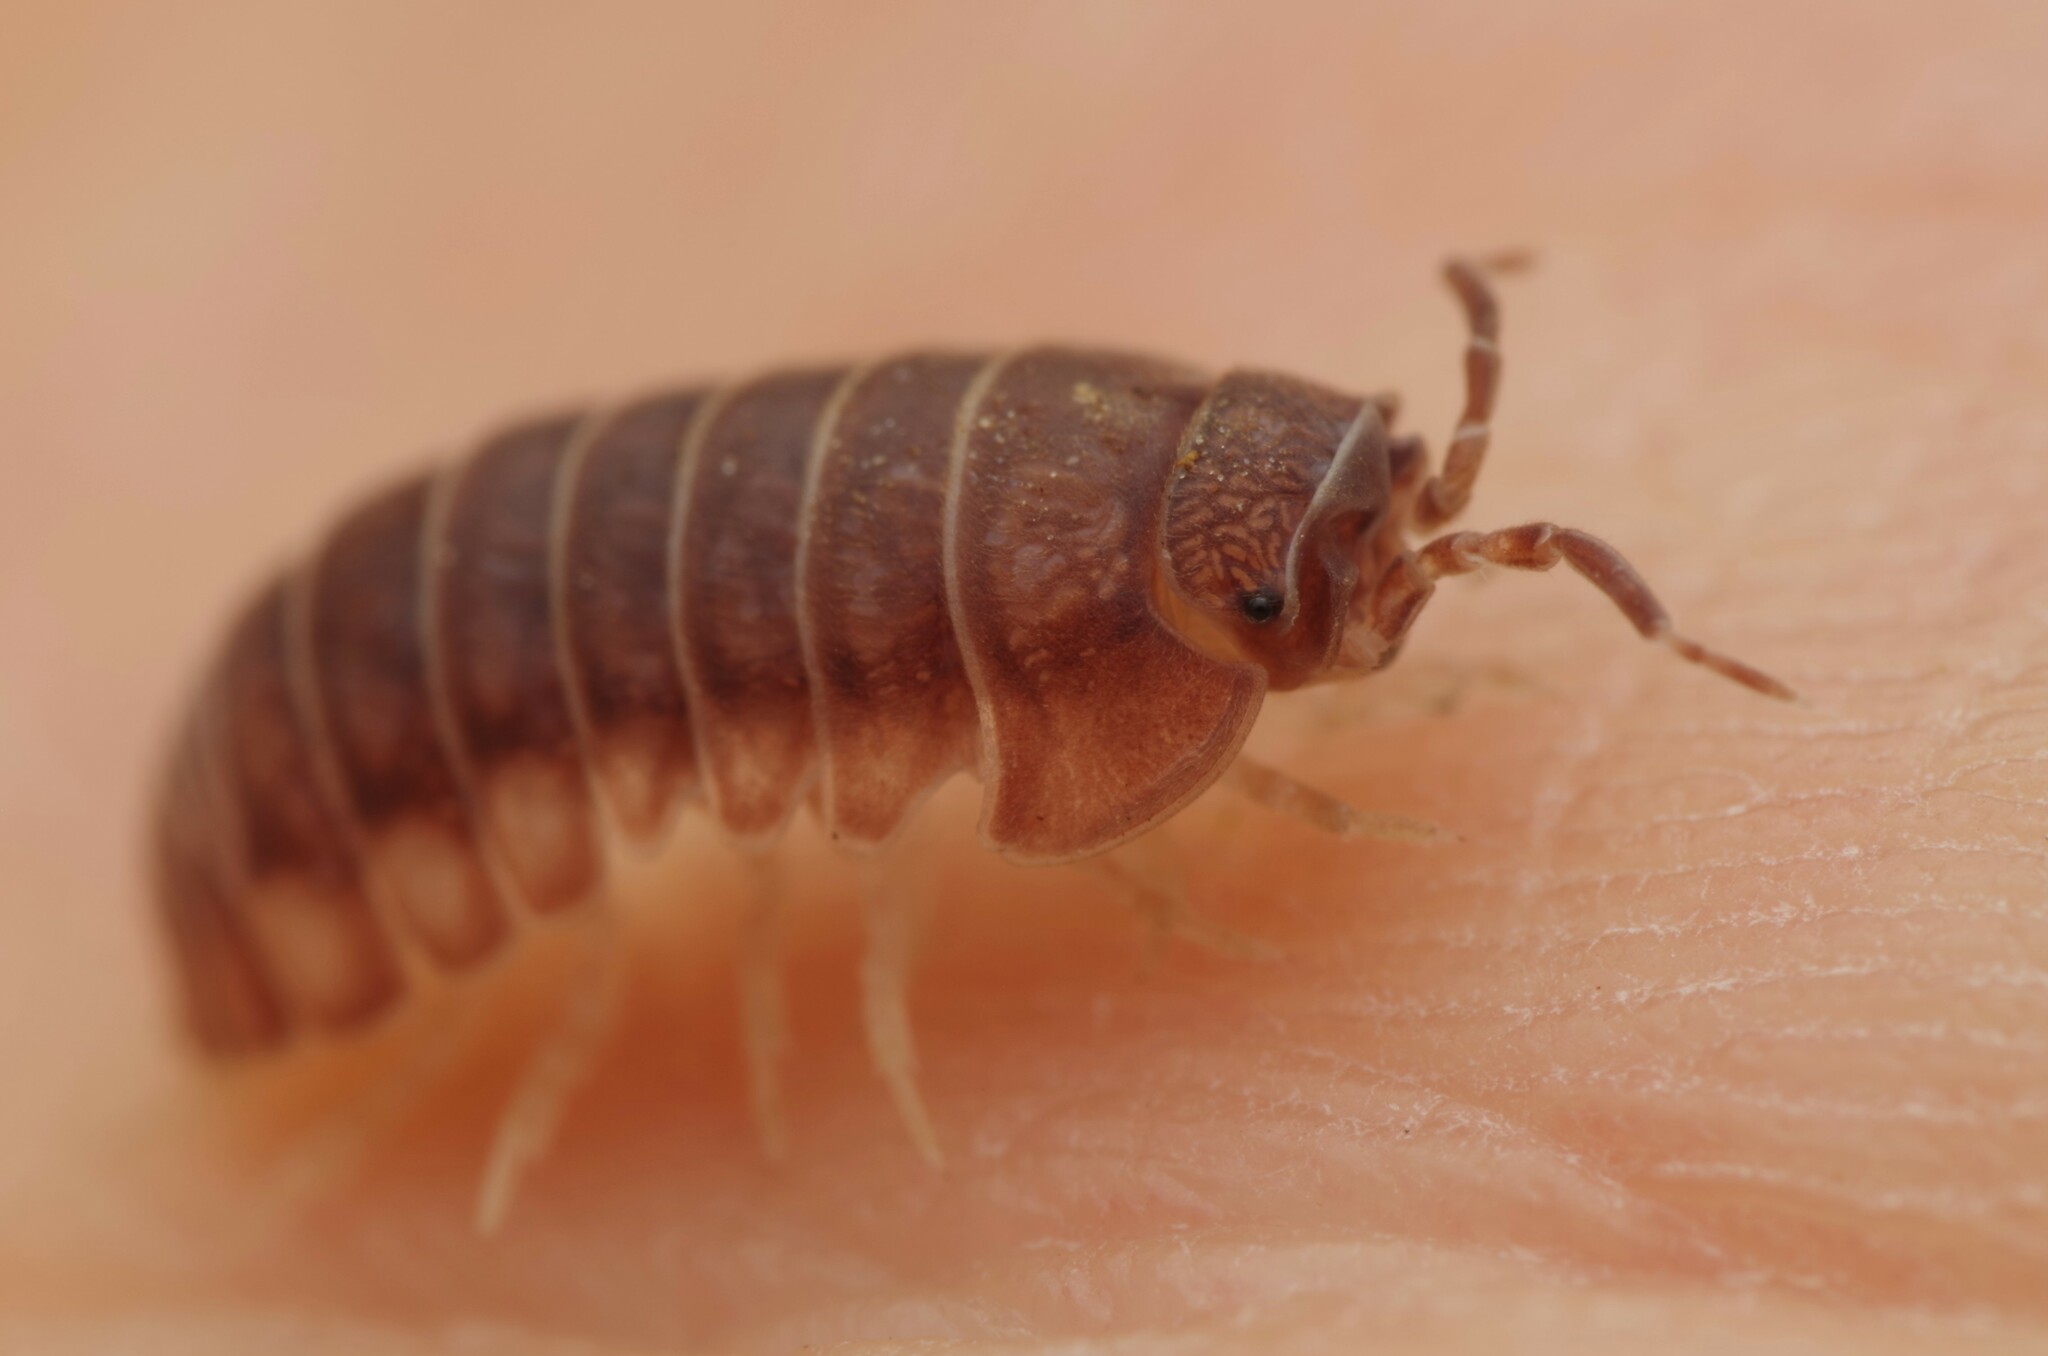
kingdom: Animalia
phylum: Arthropoda
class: Malacostraca
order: Isopoda
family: Armadillidiidae
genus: Eluma
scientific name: Eluma caelata
